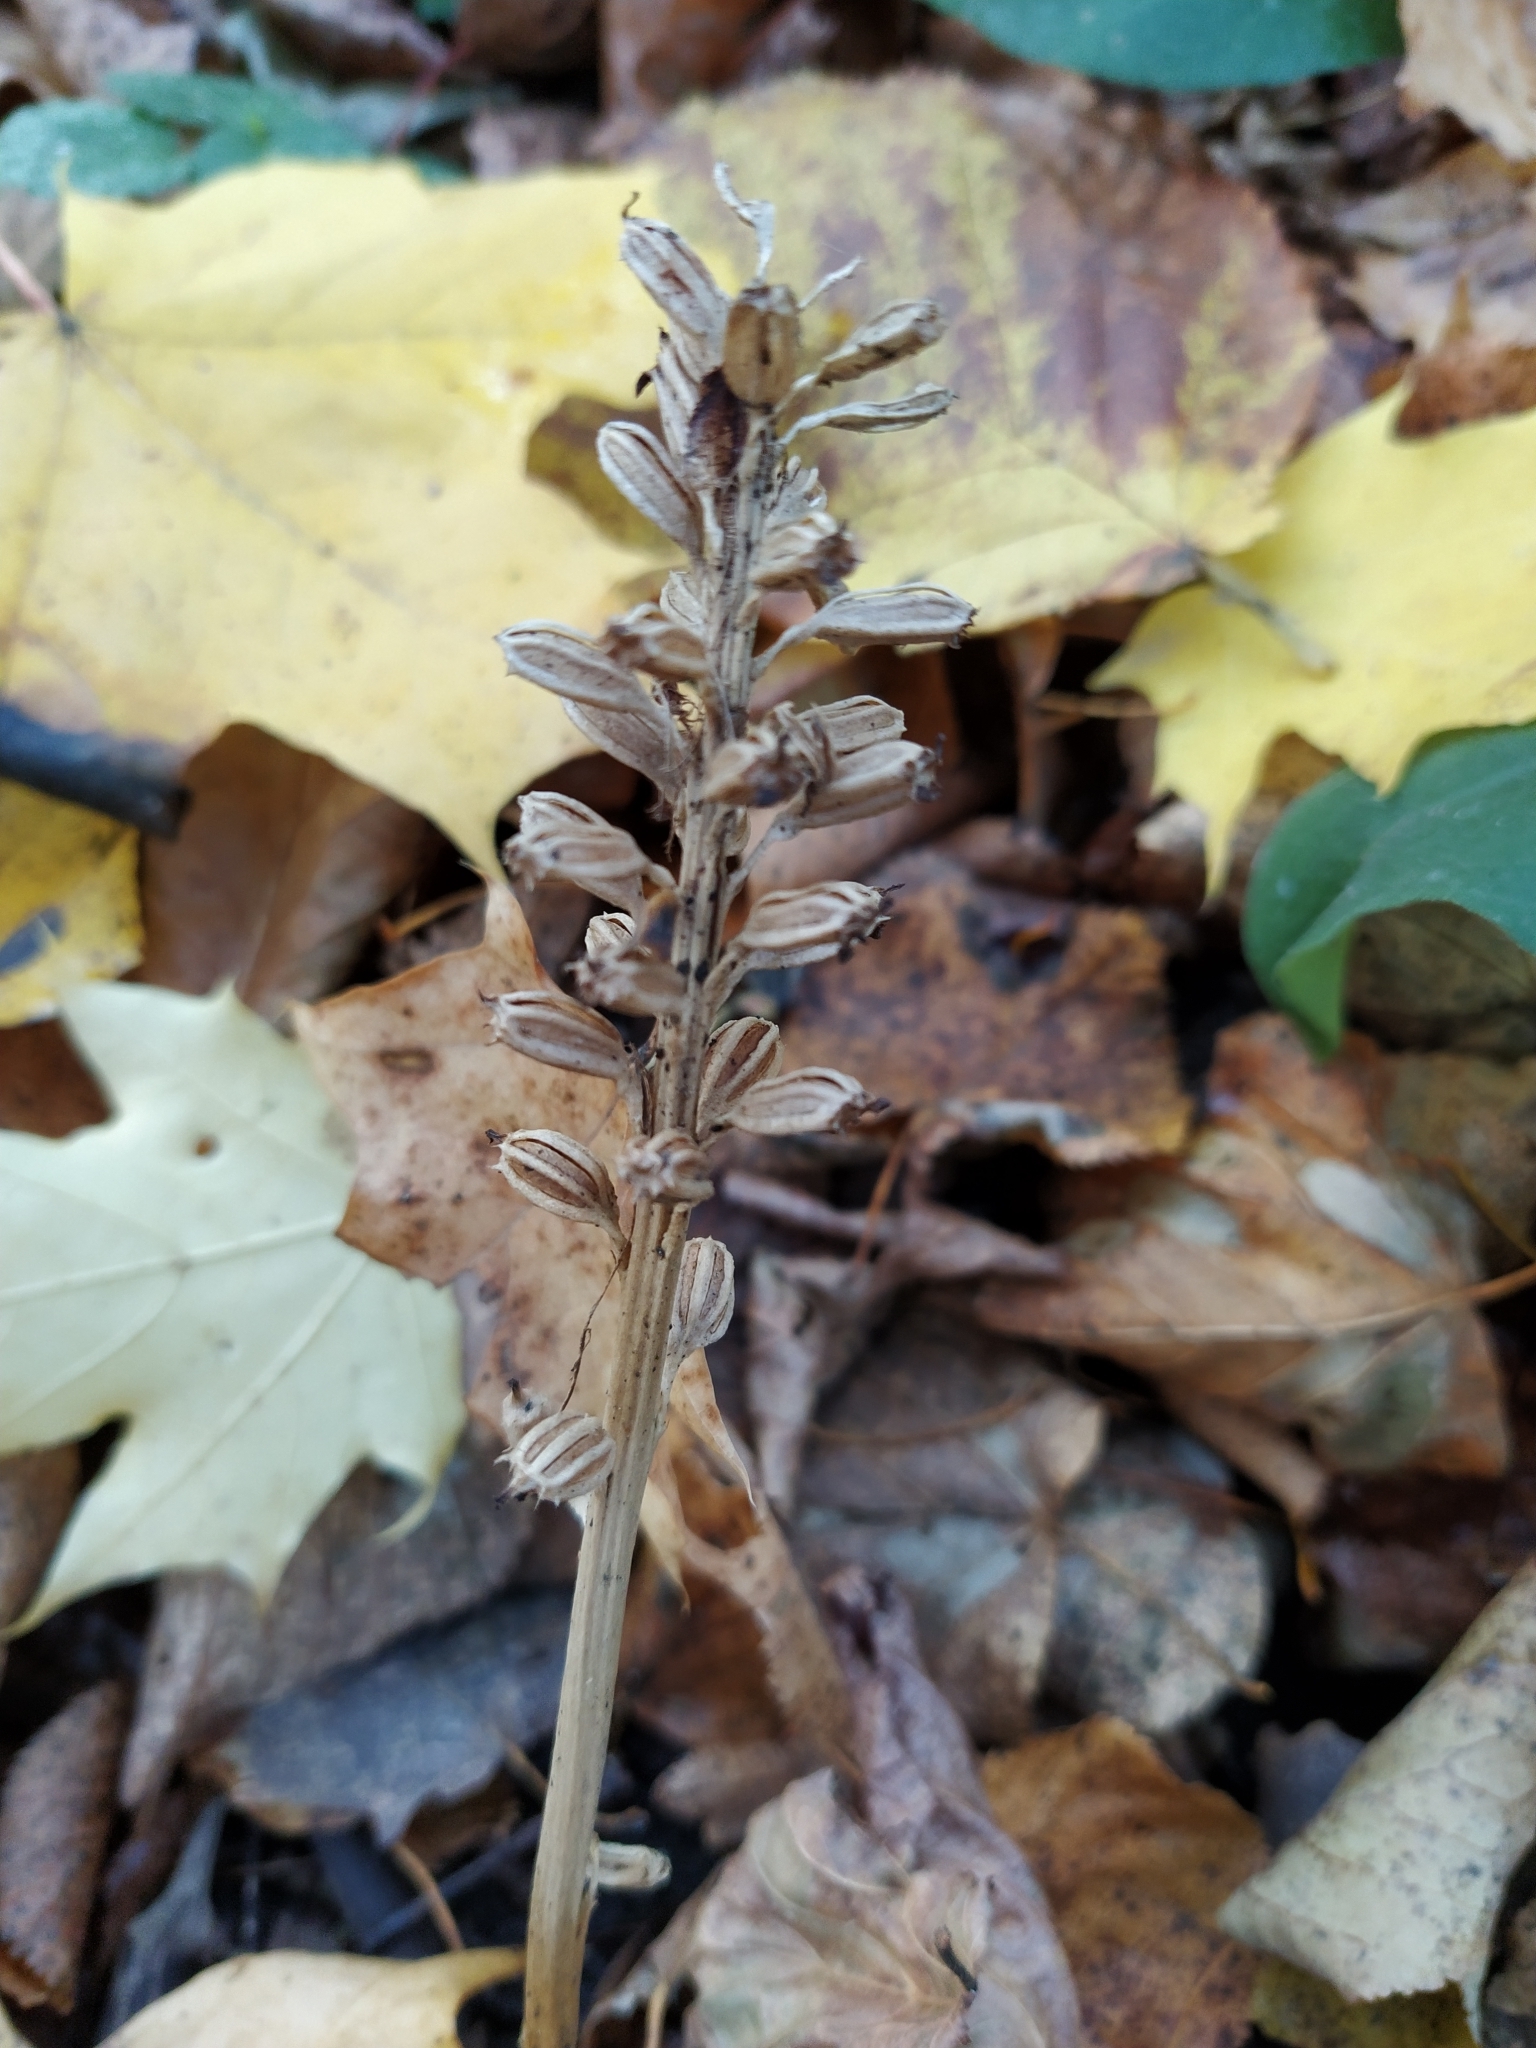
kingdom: Plantae
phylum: Tracheophyta
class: Liliopsida
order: Asparagales
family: Orchidaceae
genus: Neottia
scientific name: Neottia nidus-avis
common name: Bird's-nest orchid
